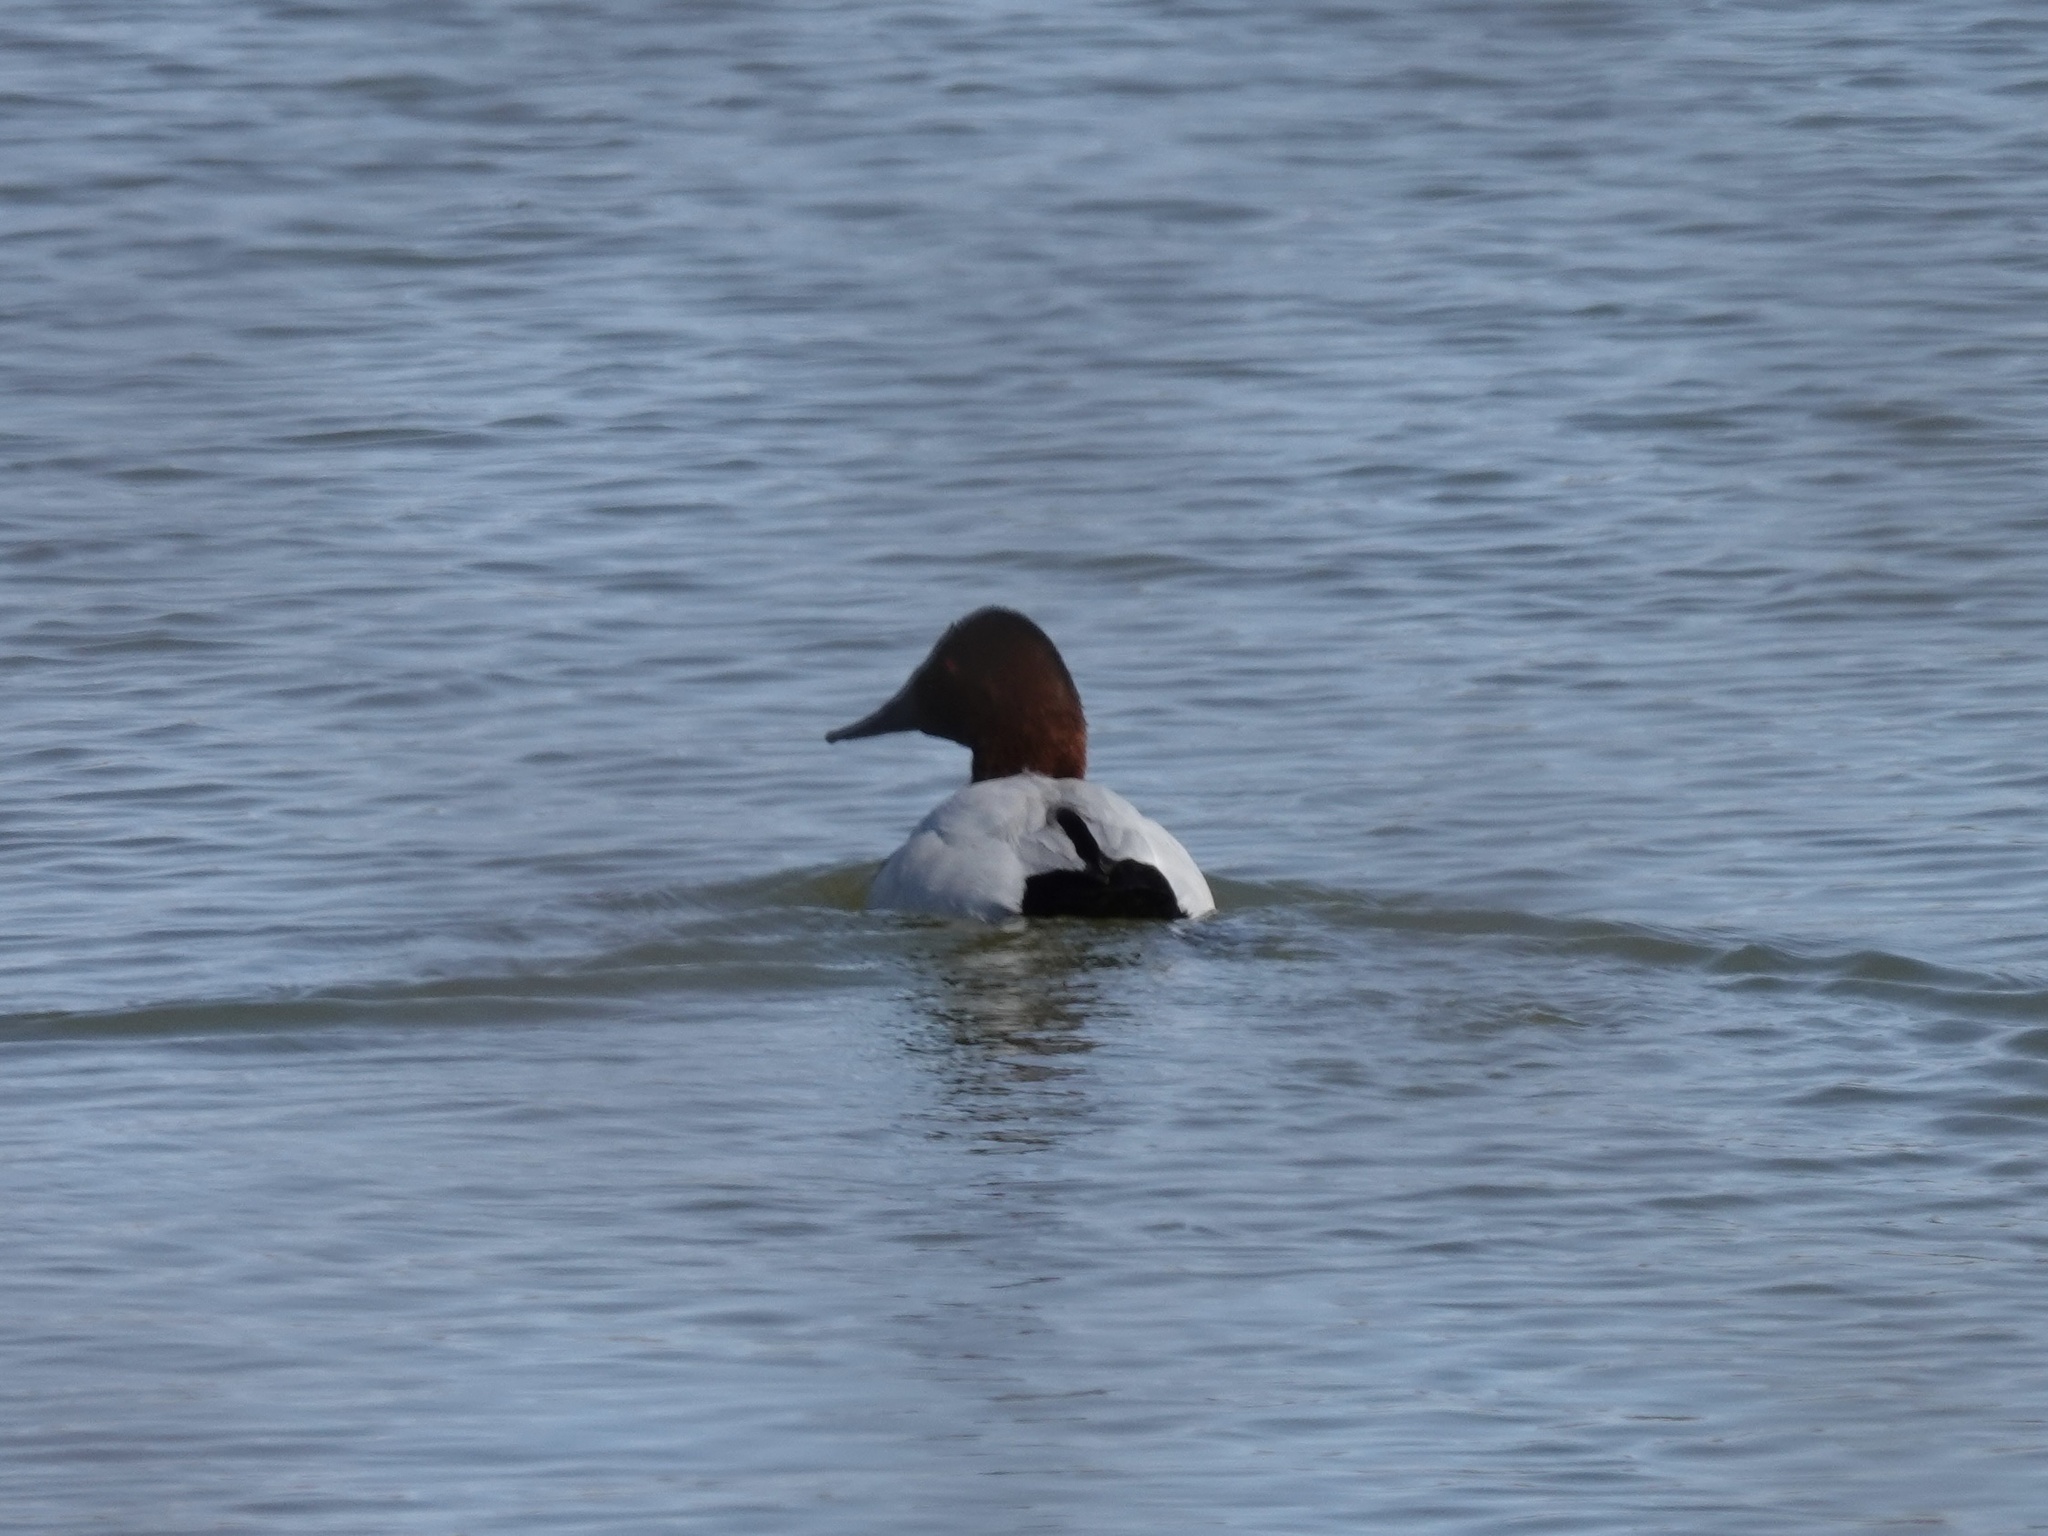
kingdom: Animalia
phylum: Chordata
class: Aves
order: Anseriformes
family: Anatidae
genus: Aythya
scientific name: Aythya valisineria
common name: Canvasback
